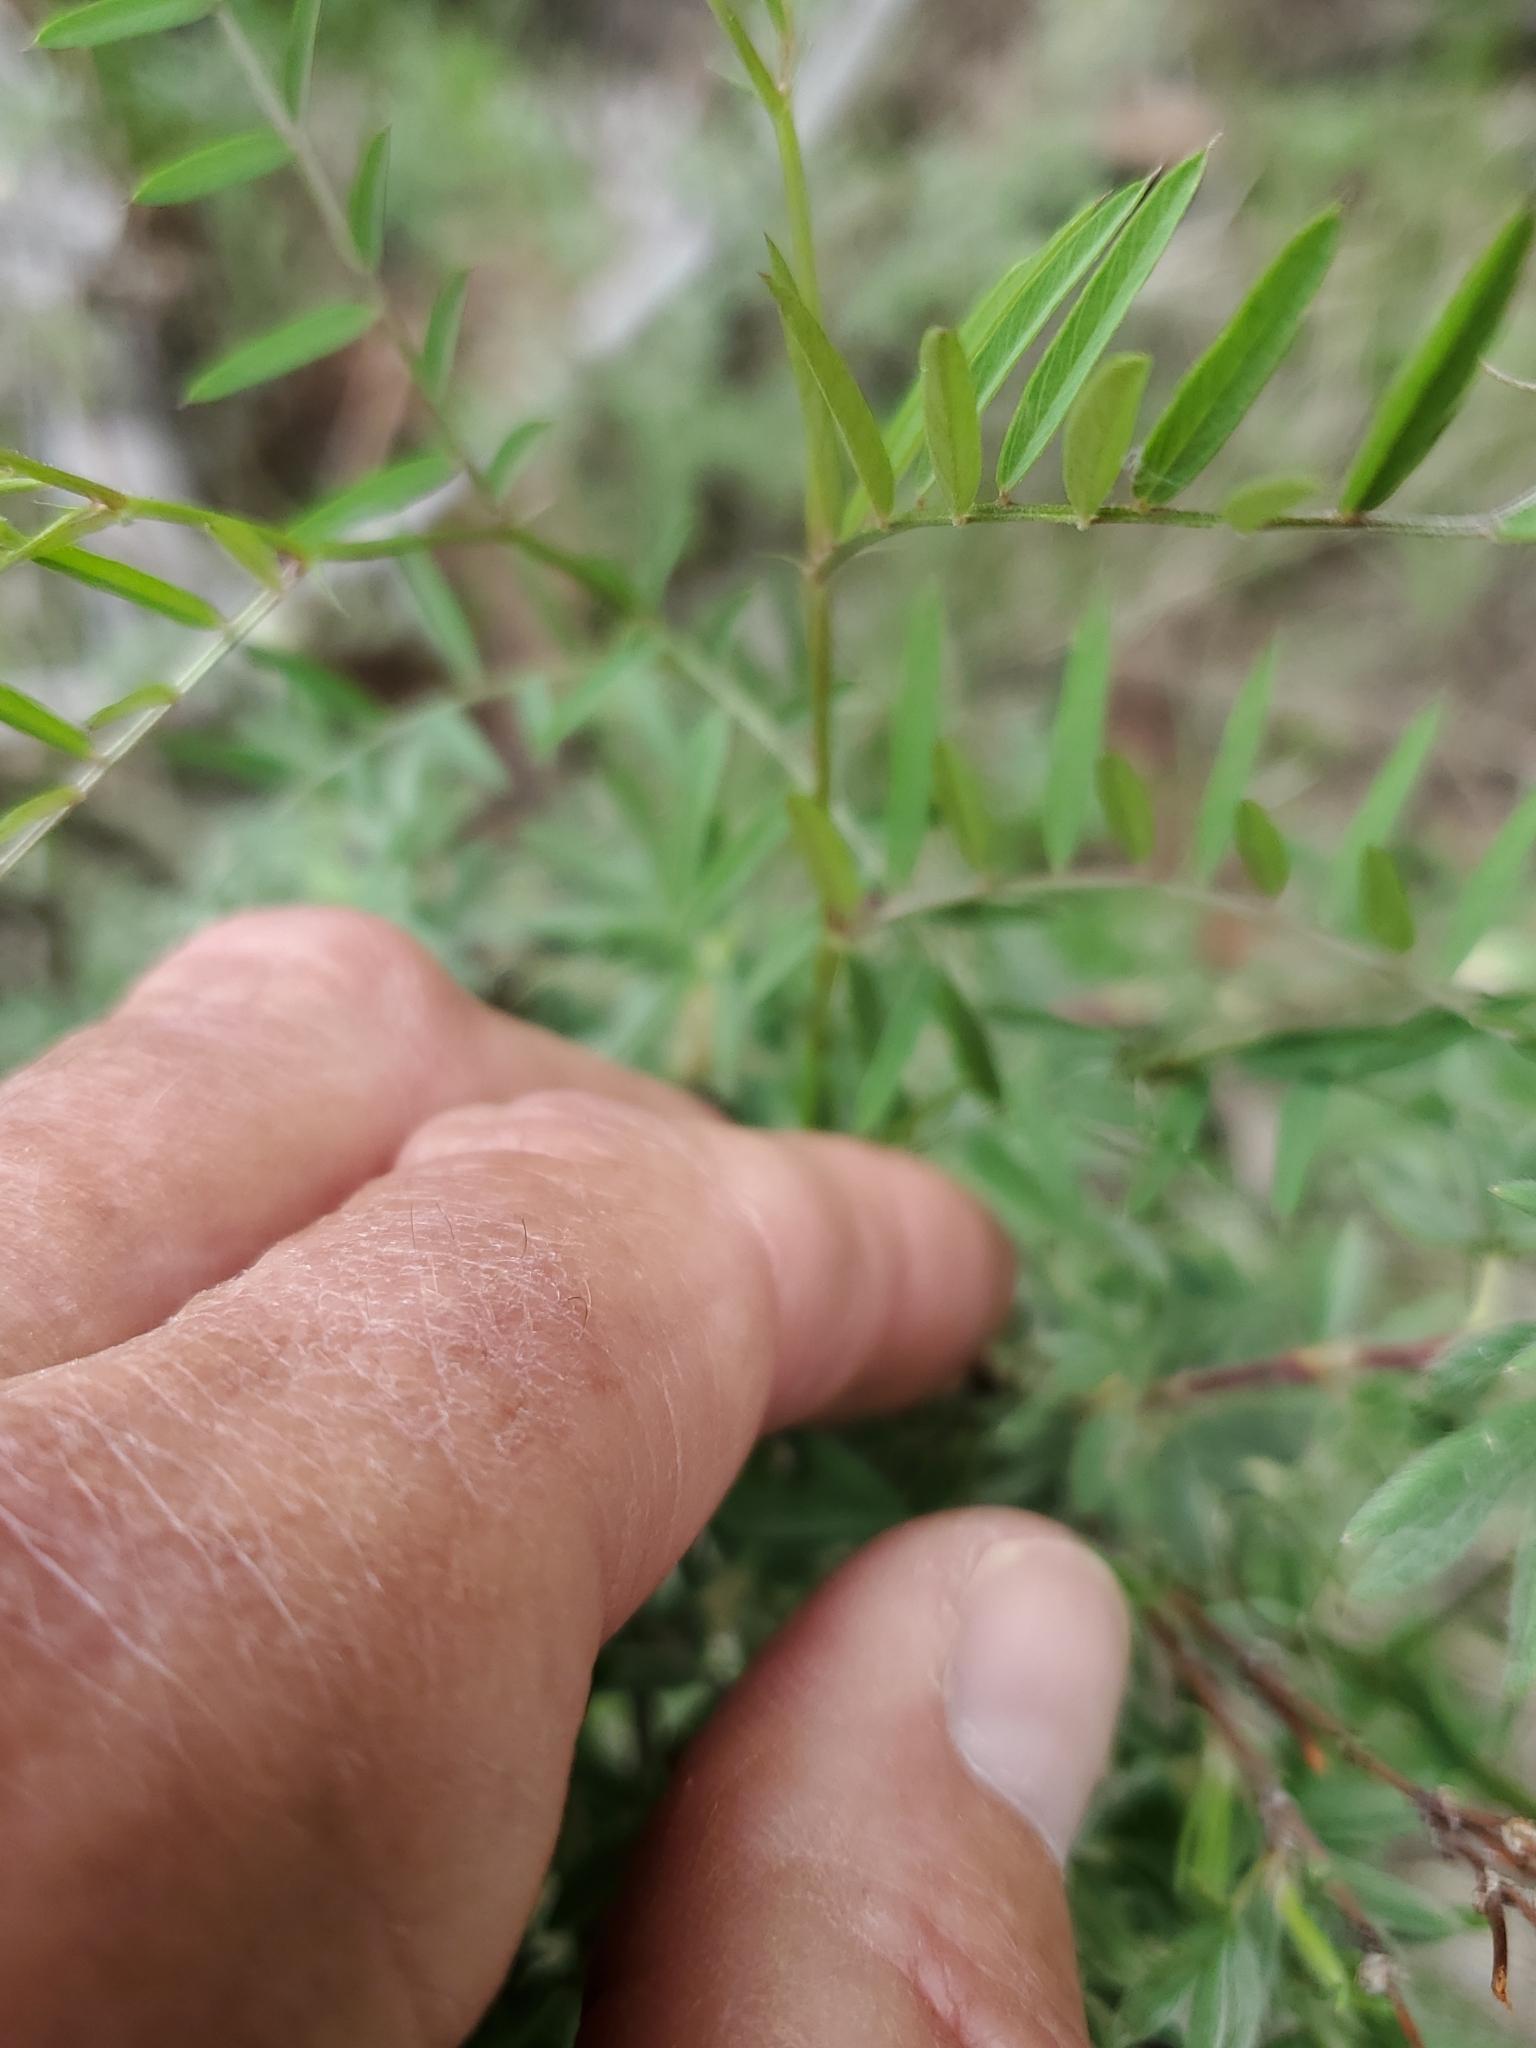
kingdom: Plantae
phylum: Tracheophyta
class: Magnoliopsida
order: Fabales
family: Fabaceae
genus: Vicia
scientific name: Vicia americana
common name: American vetch
